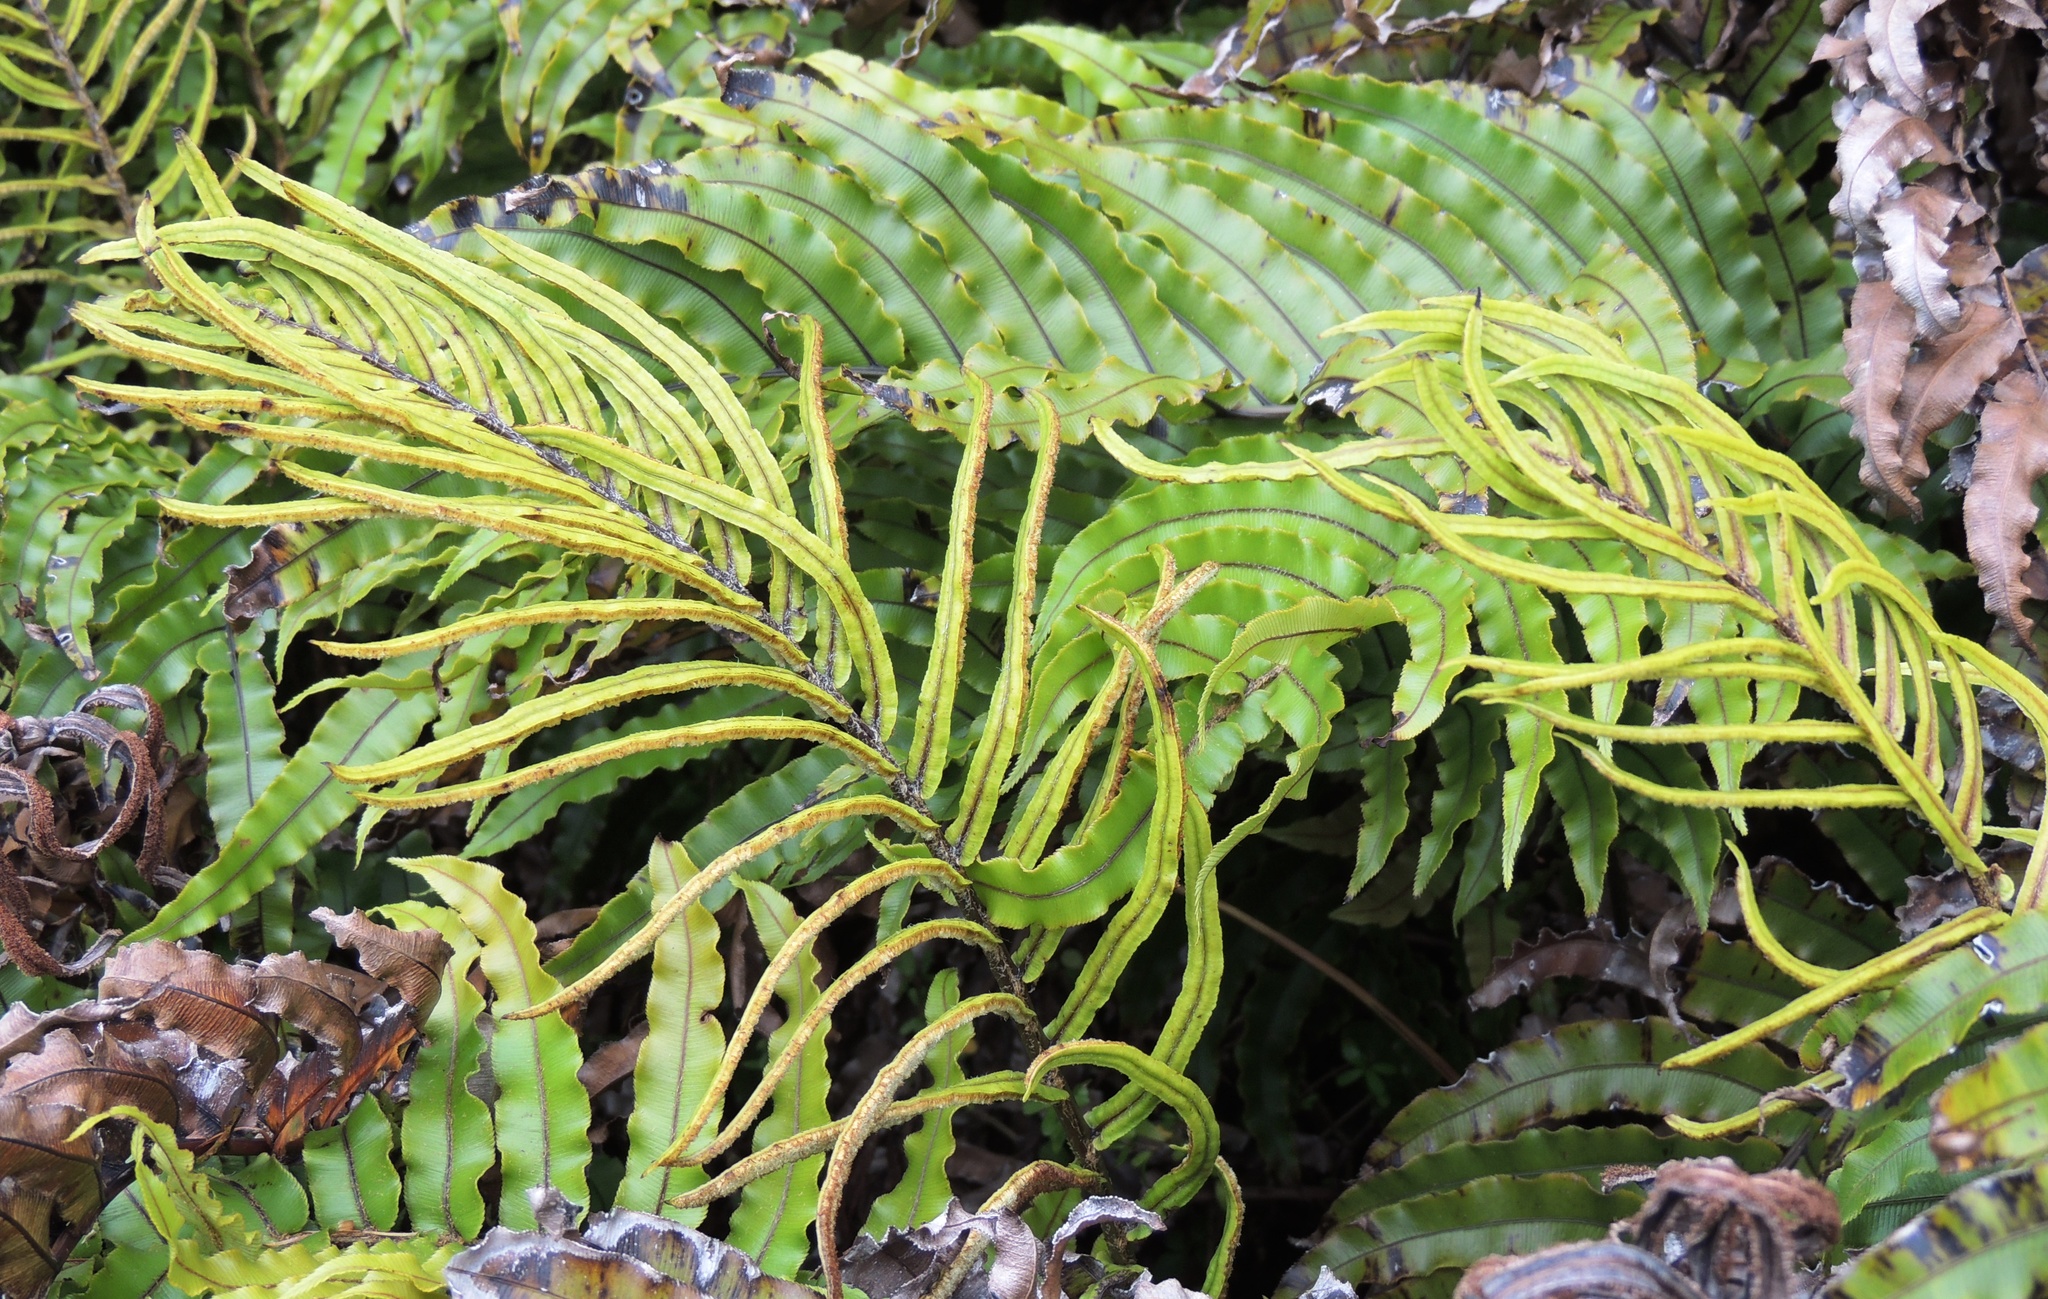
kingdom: Plantae
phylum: Tracheophyta
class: Polypodiopsida
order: Polypodiales
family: Blechnaceae
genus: Parablechnum
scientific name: Parablechnum montanum
